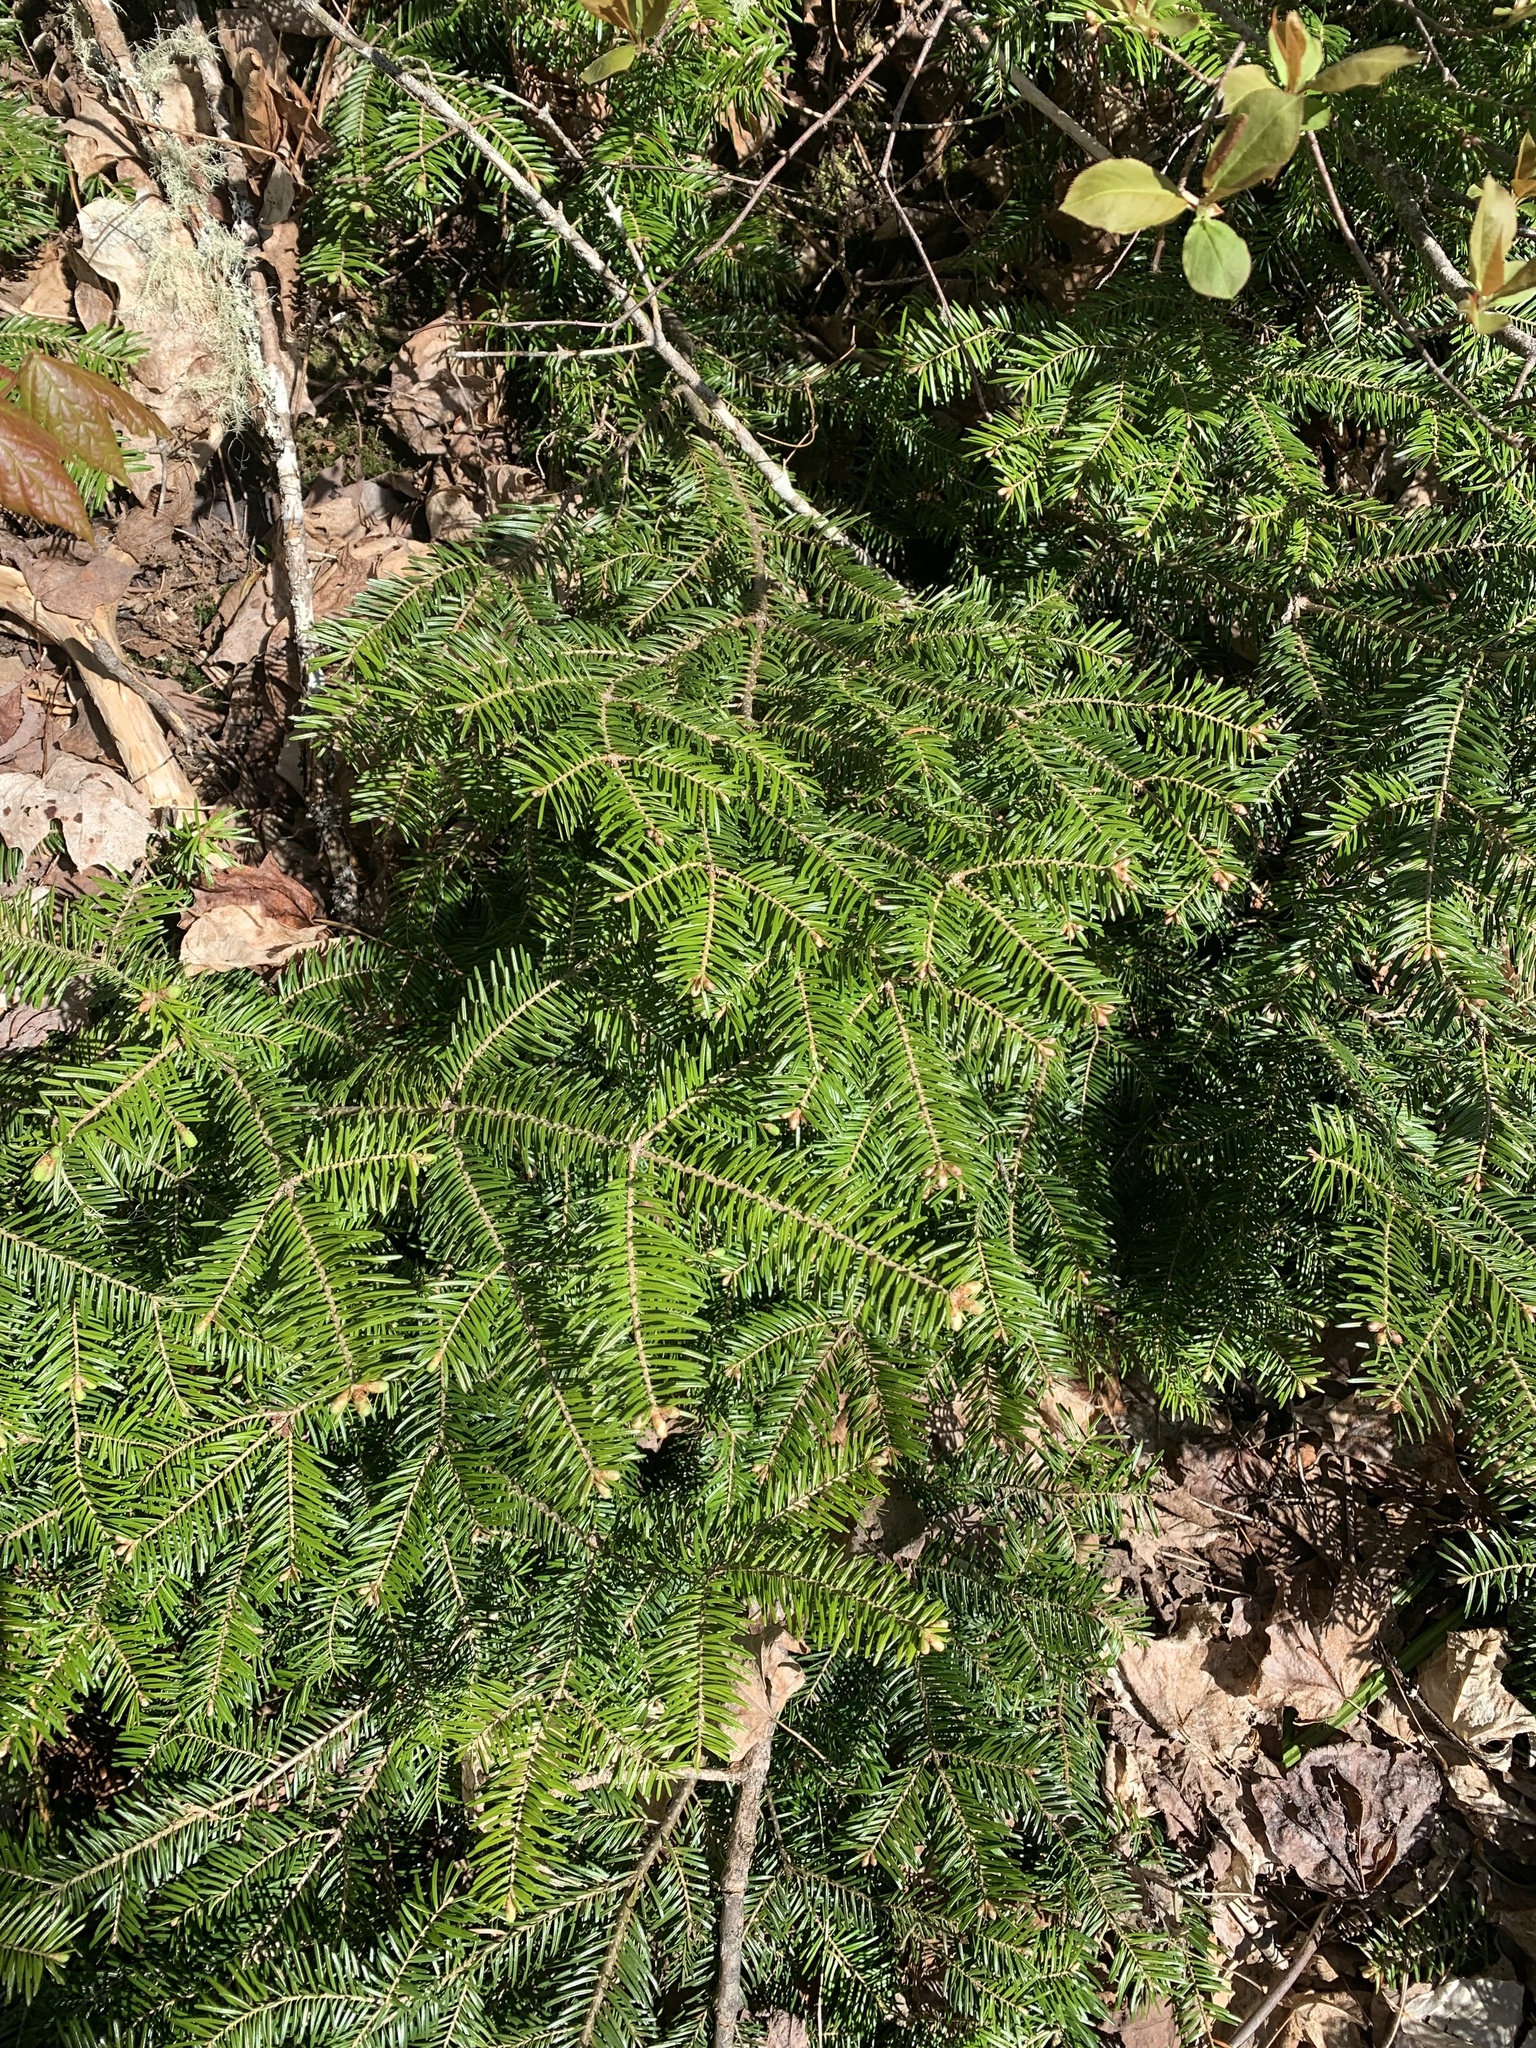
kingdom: Plantae
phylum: Tracheophyta
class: Pinopsida
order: Pinales
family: Pinaceae
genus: Abies
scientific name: Abies balsamea
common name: Balsam fir
